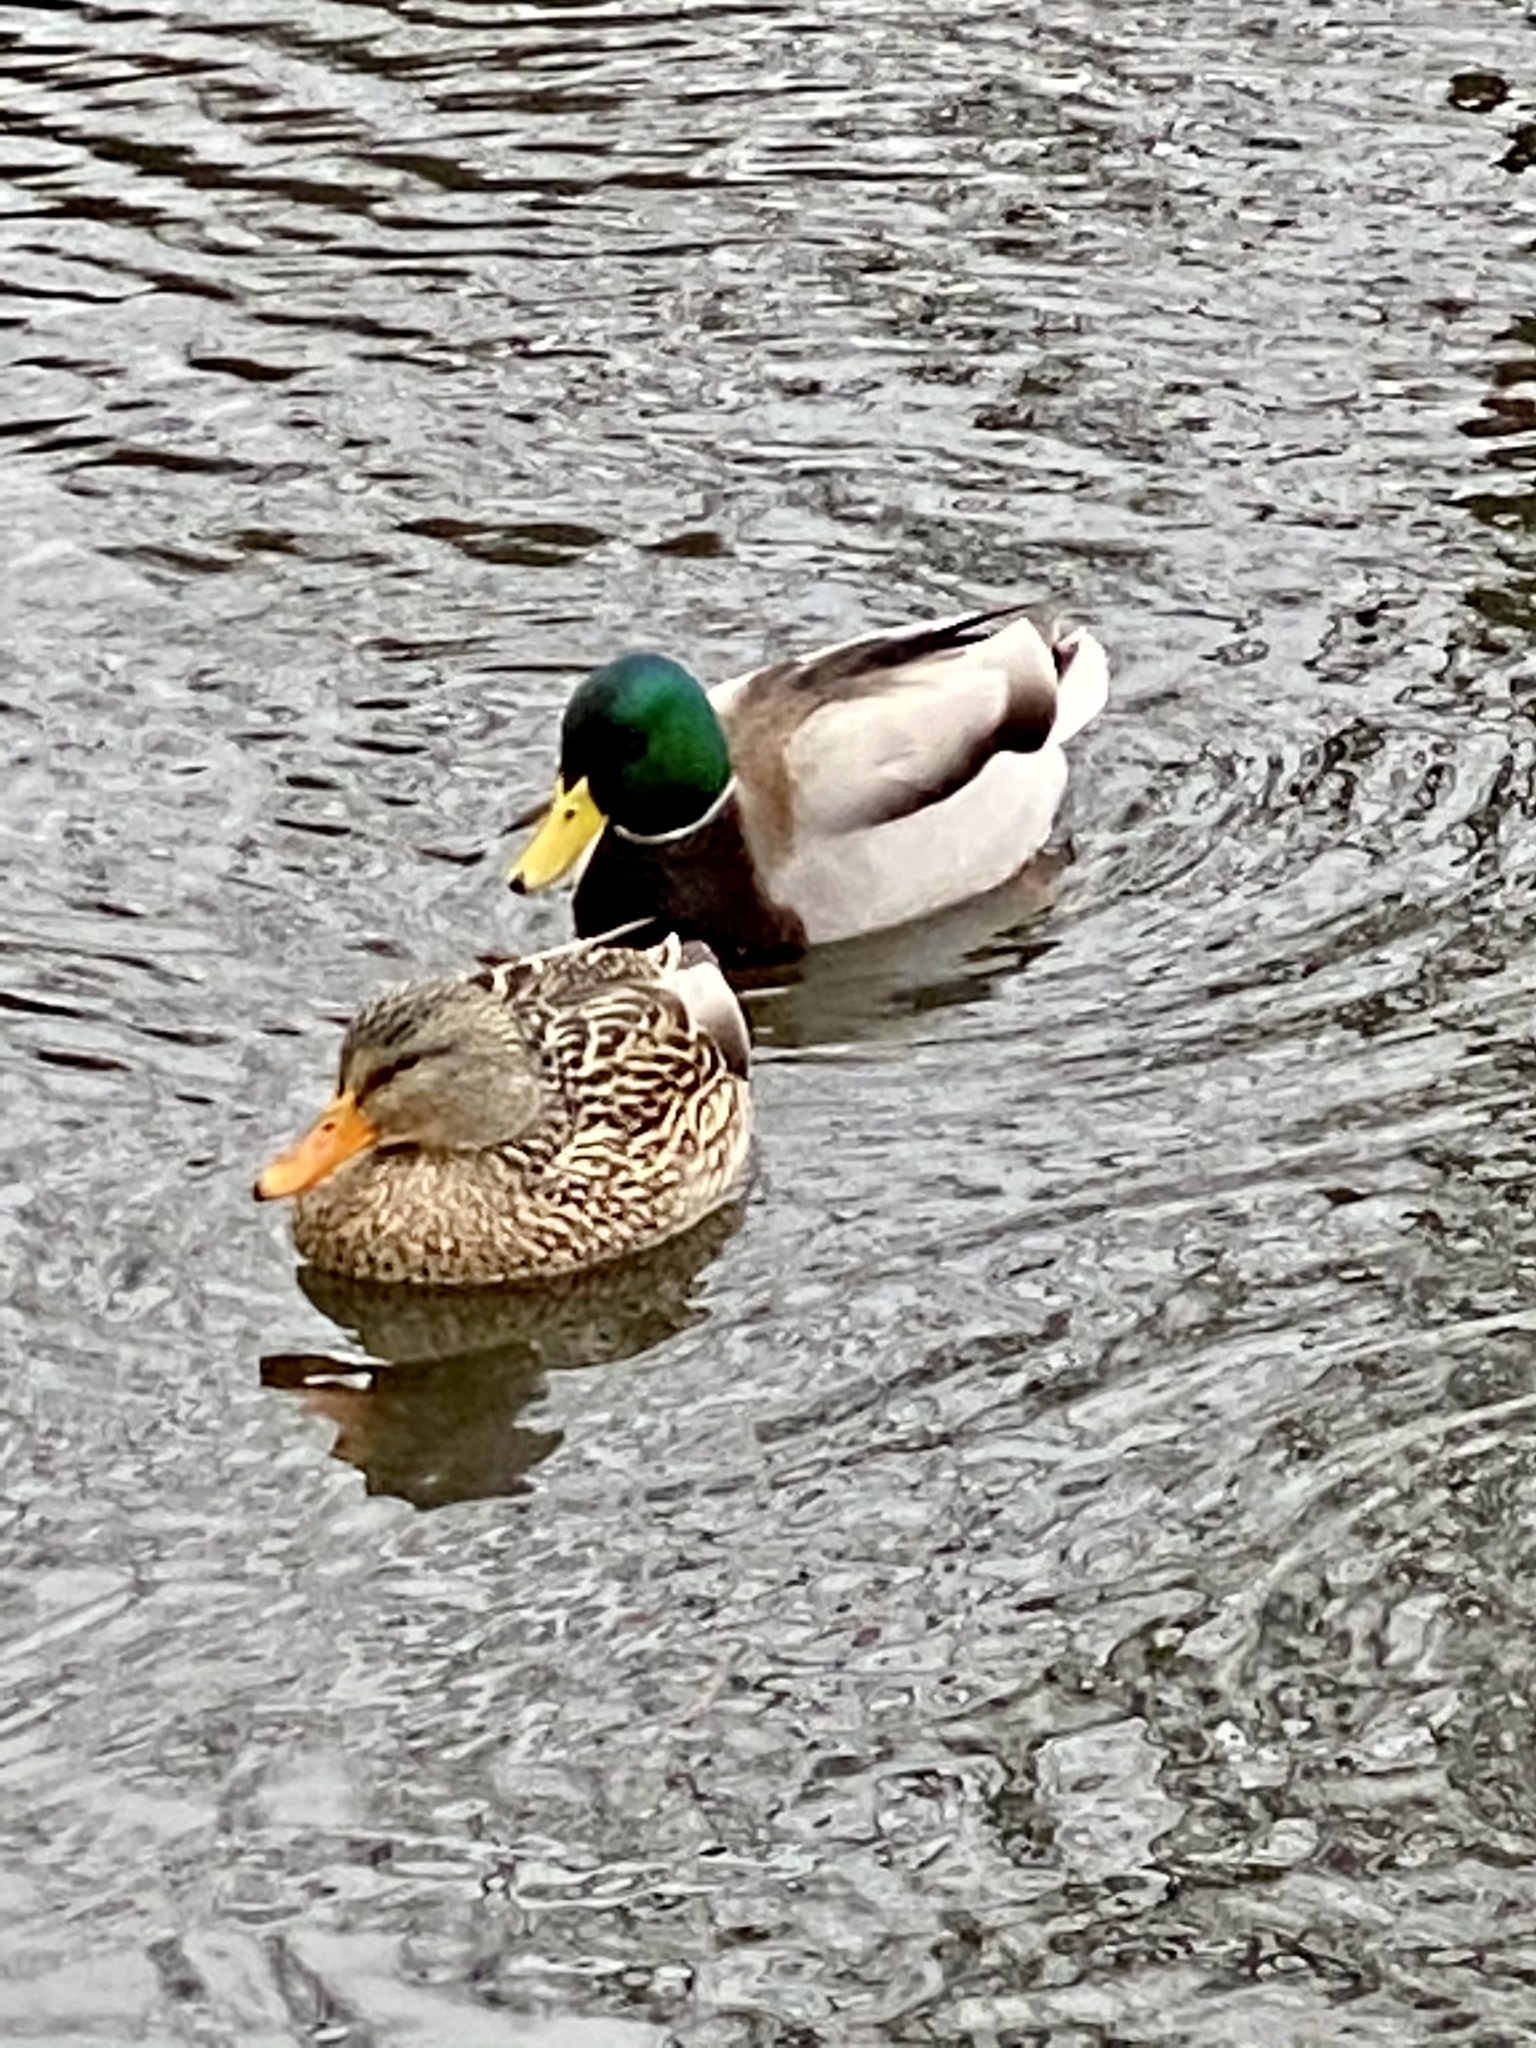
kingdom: Animalia
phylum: Chordata
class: Aves
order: Anseriformes
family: Anatidae
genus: Anas
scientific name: Anas platyrhynchos
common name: Mallard
